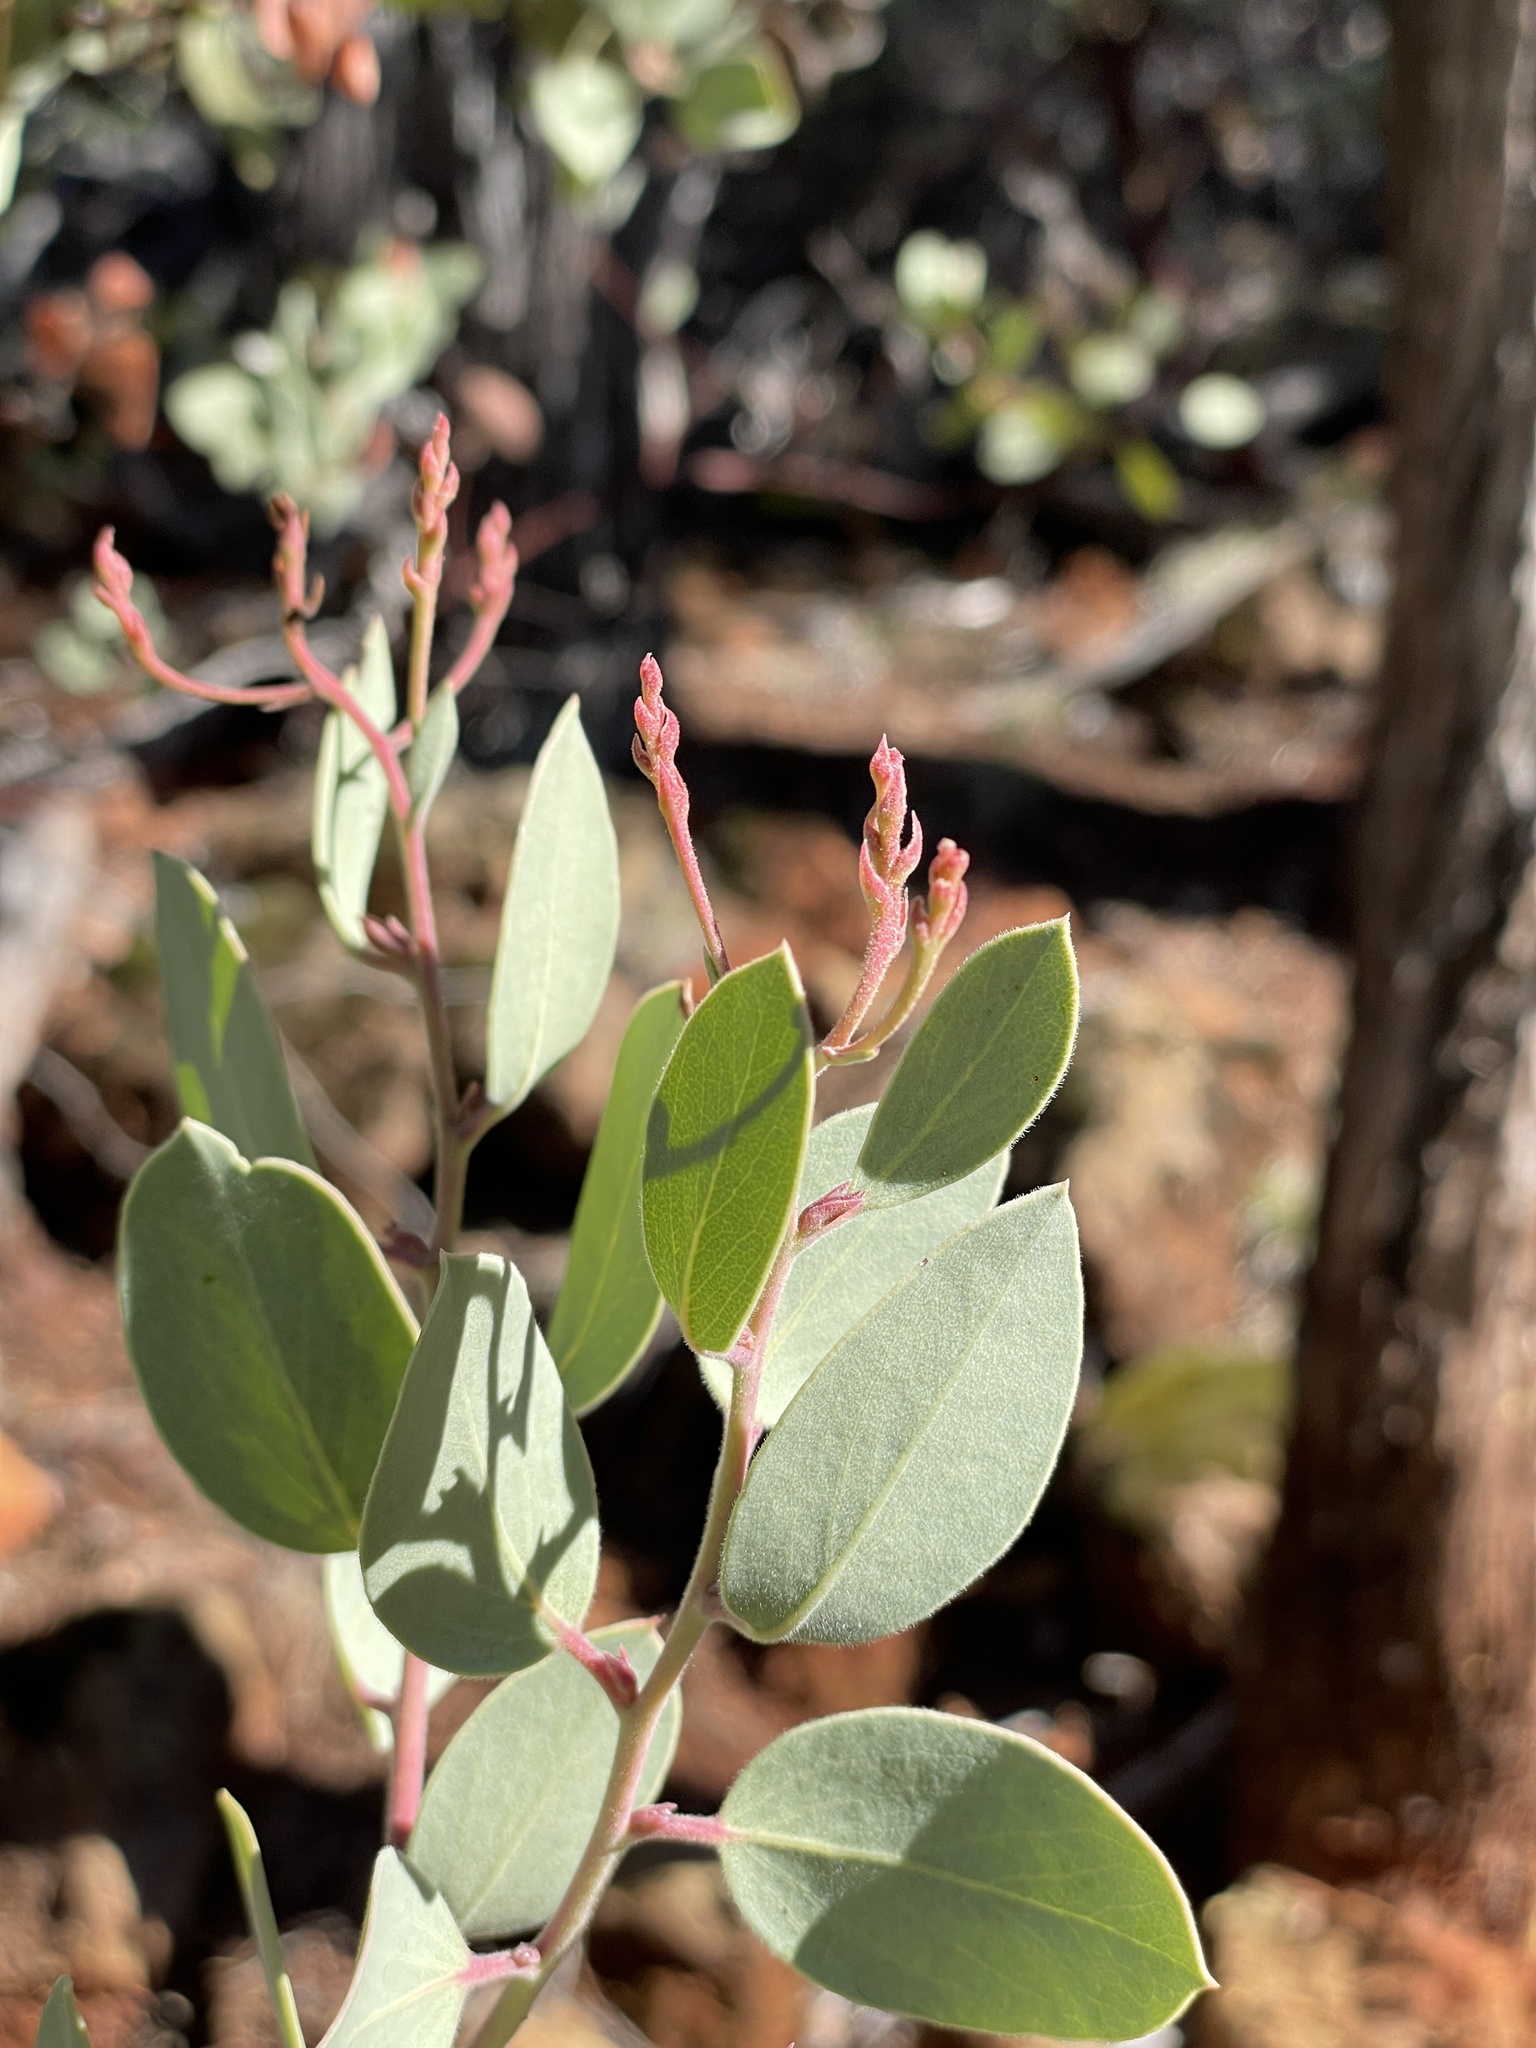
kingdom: Plantae
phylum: Tracheophyta
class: Magnoliopsida
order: Ericales
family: Ericaceae
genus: Arctostaphylos
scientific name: Arctostaphylos viscida
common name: White-leaf manzanita
